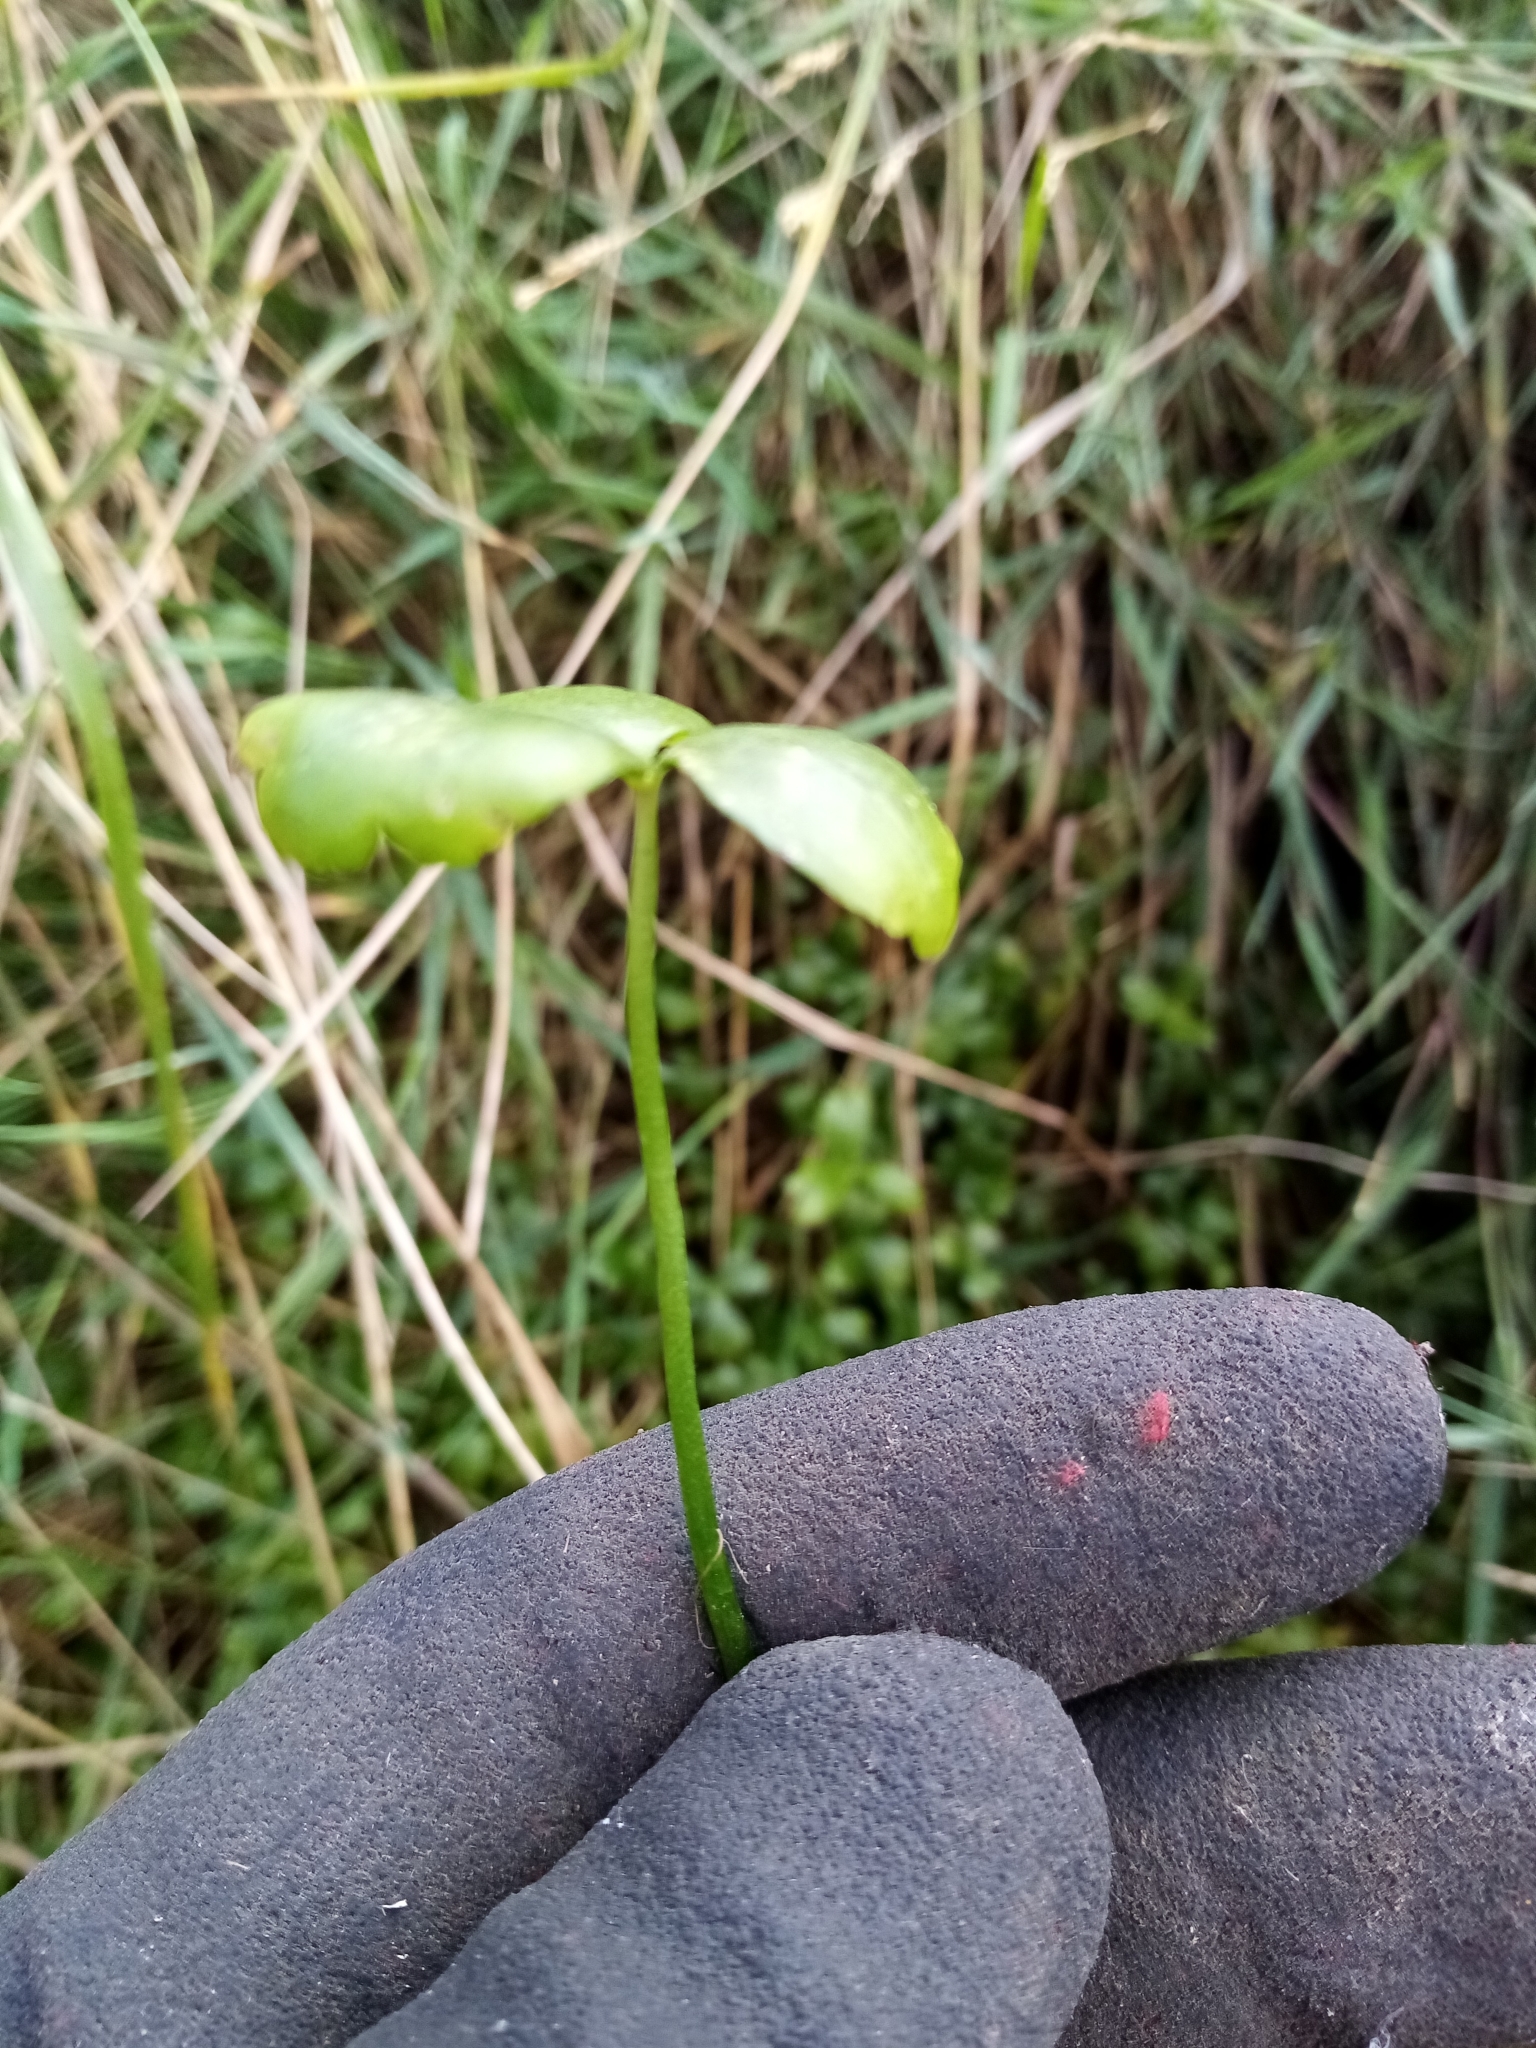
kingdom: Plantae
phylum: Tracheophyta
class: Magnoliopsida
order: Ranunculales
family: Ranunculaceae
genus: Ranunculus
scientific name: Ranunculus macropus
